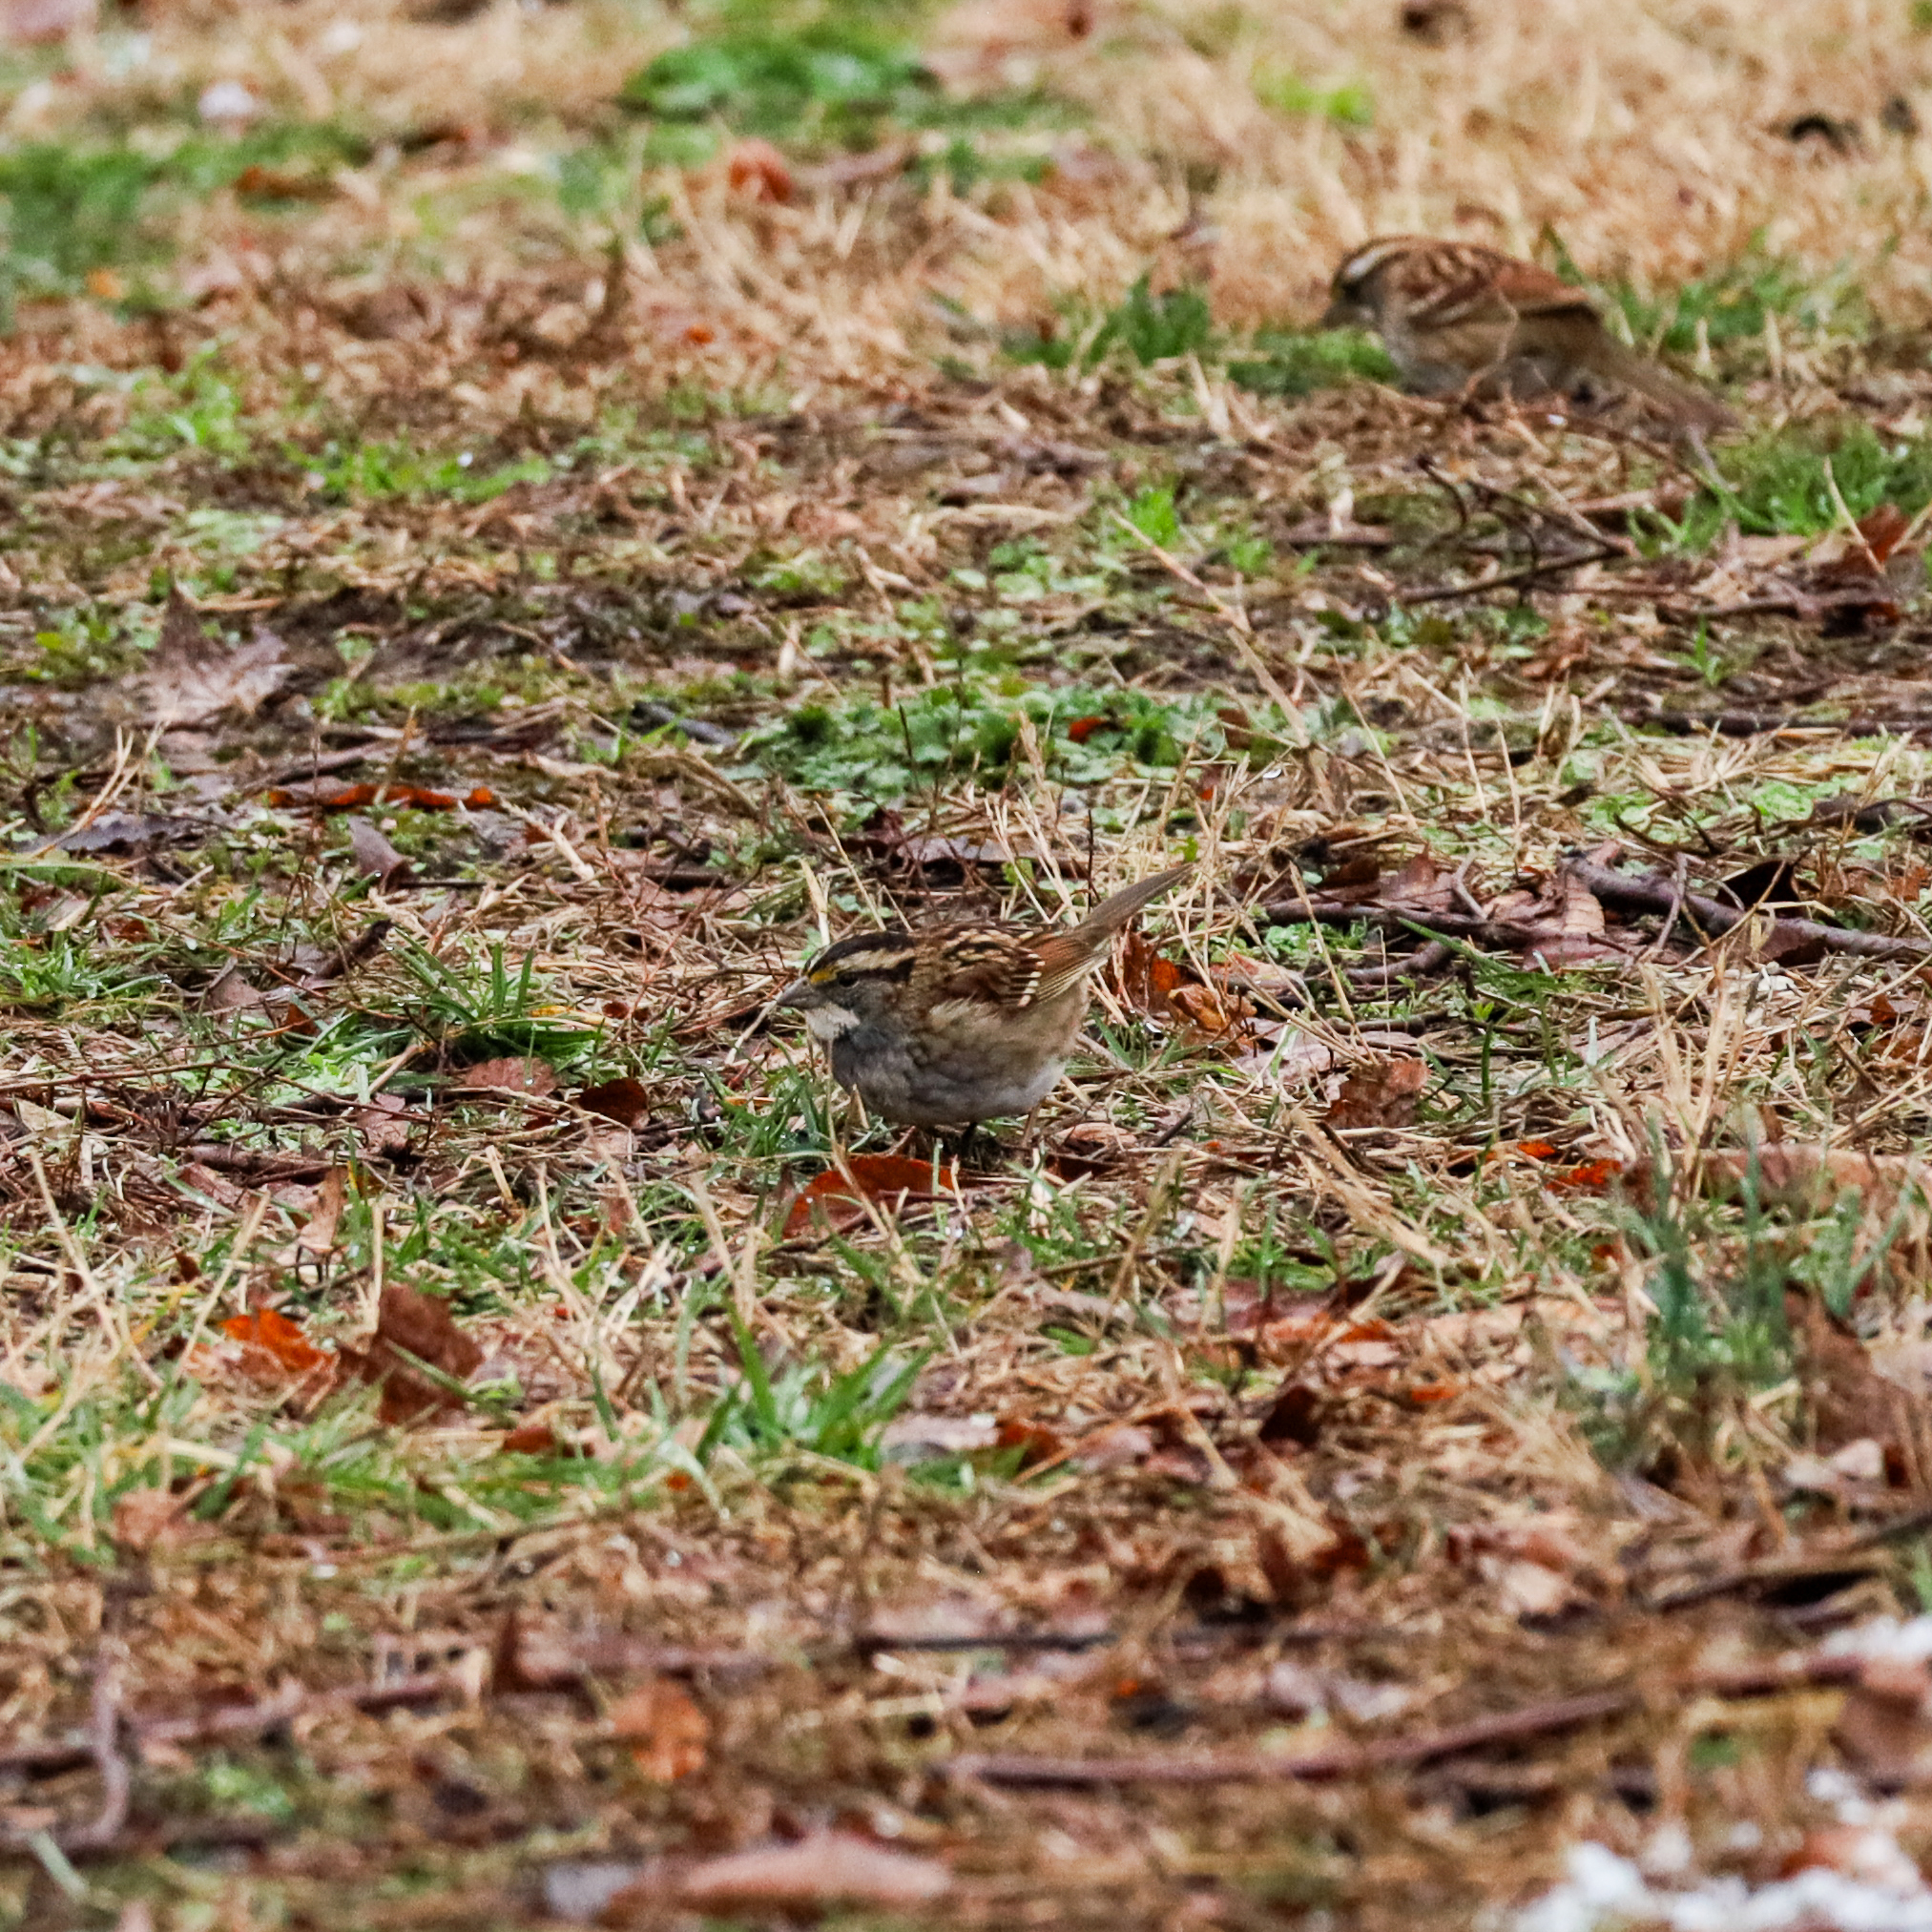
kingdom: Animalia
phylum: Chordata
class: Aves
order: Passeriformes
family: Passerellidae
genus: Zonotrichia
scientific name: Zonotrichia albicollis
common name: White-throated sparrow
